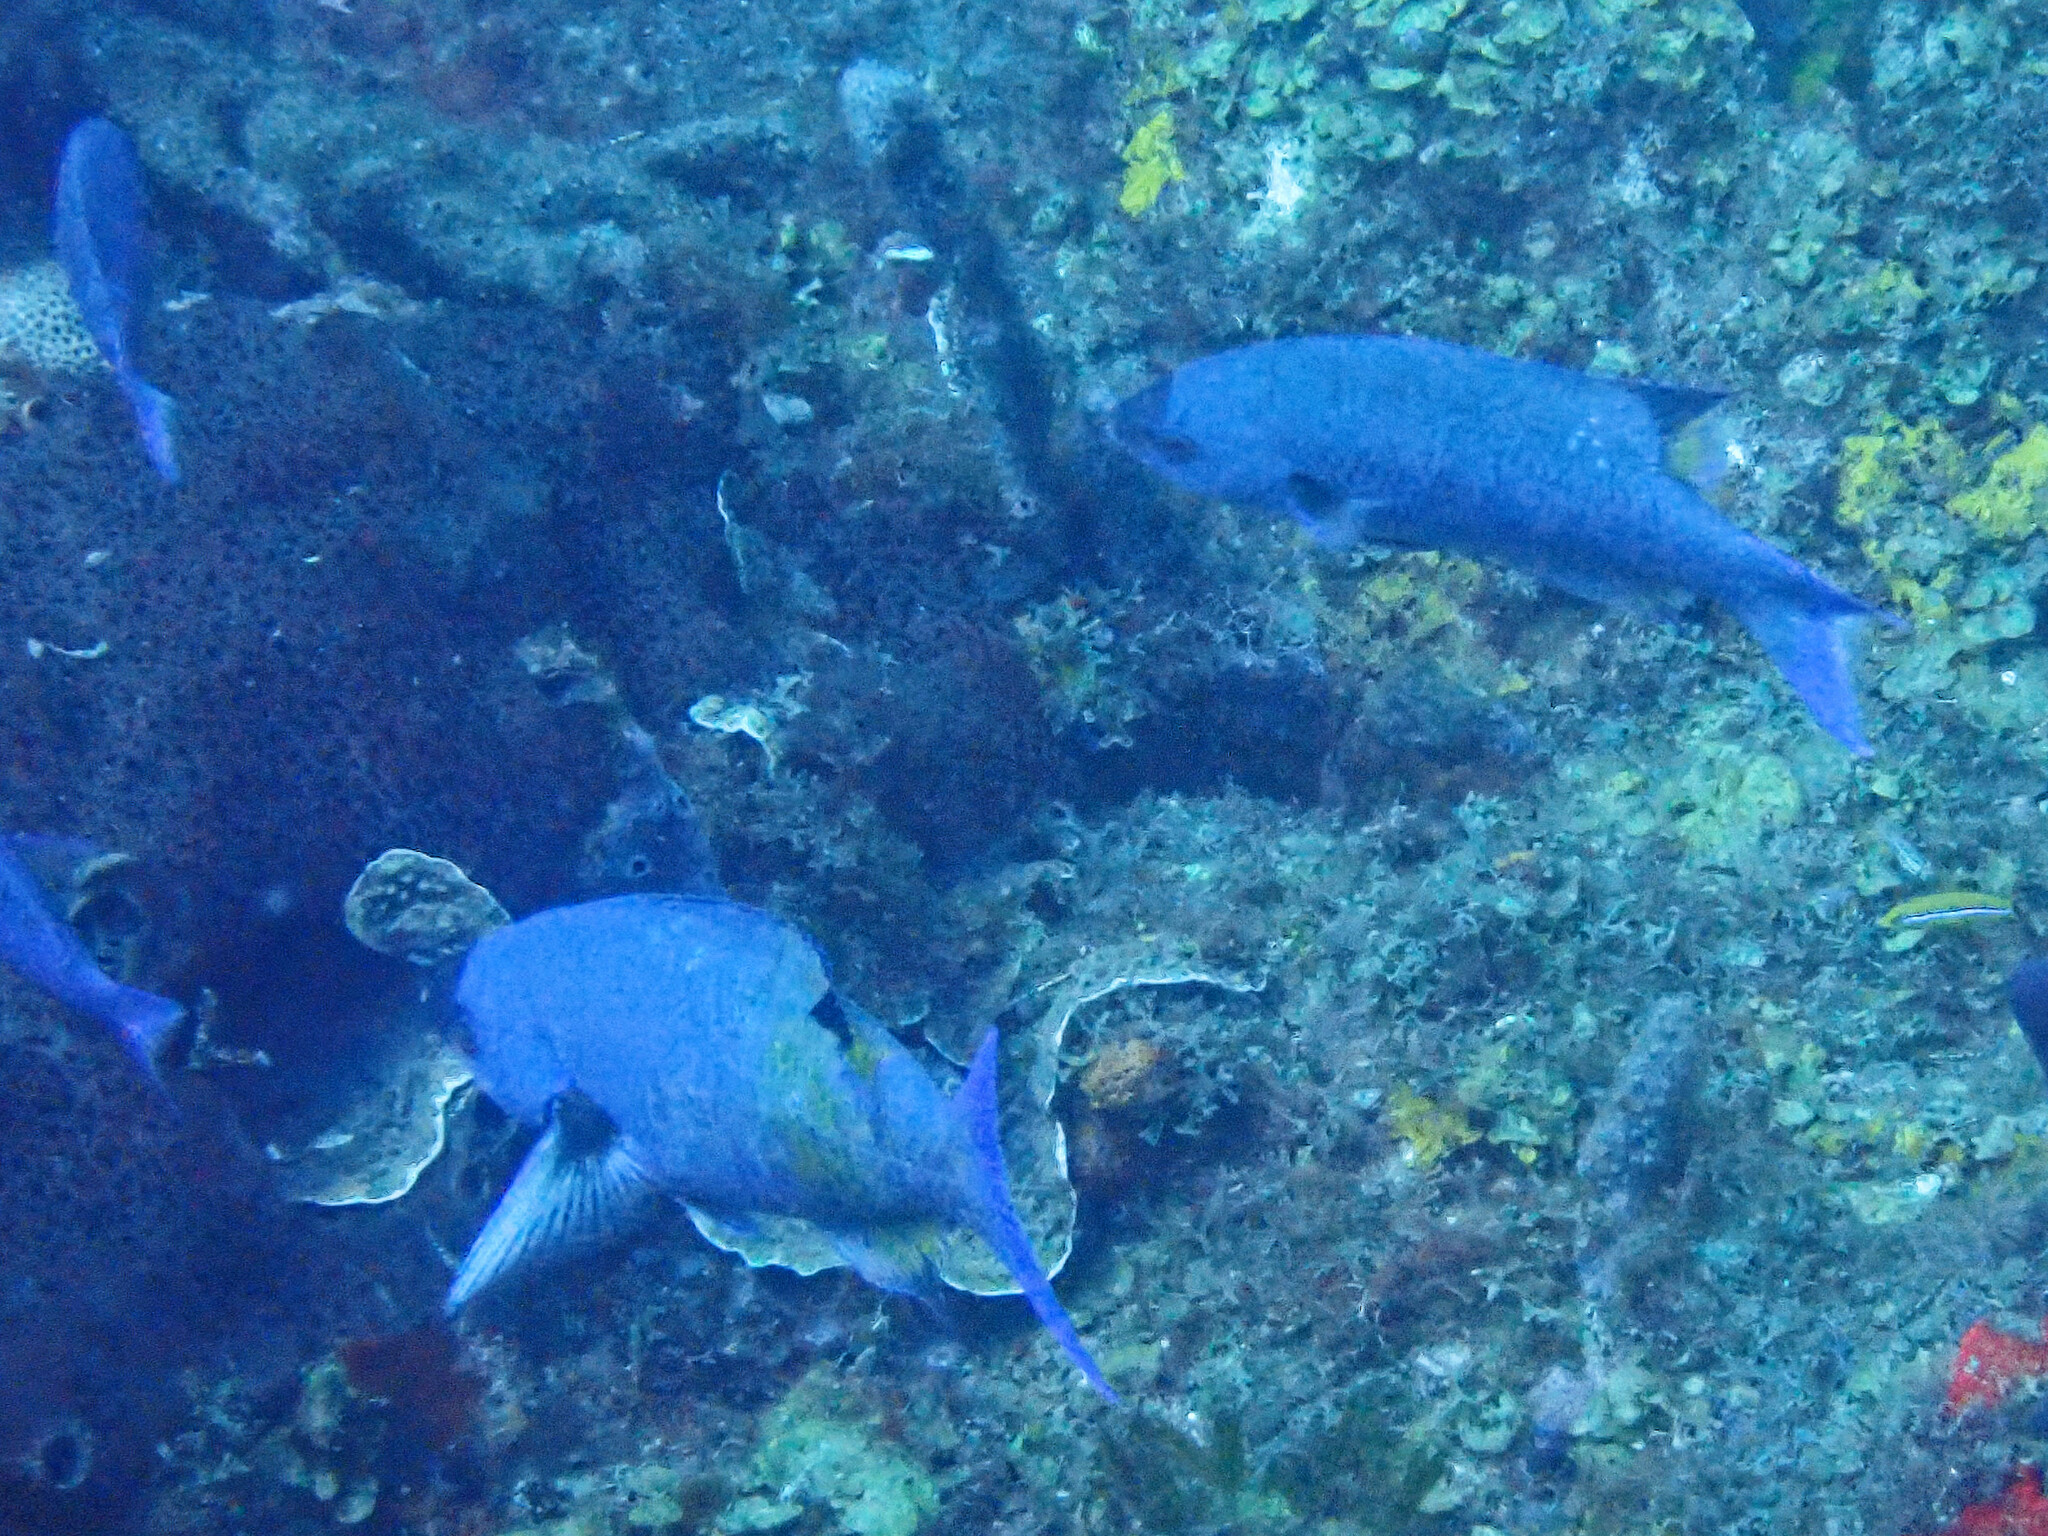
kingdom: Animalia
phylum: Chordata
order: Perciformes
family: Labridae
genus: Bodianus
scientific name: Bodianus
